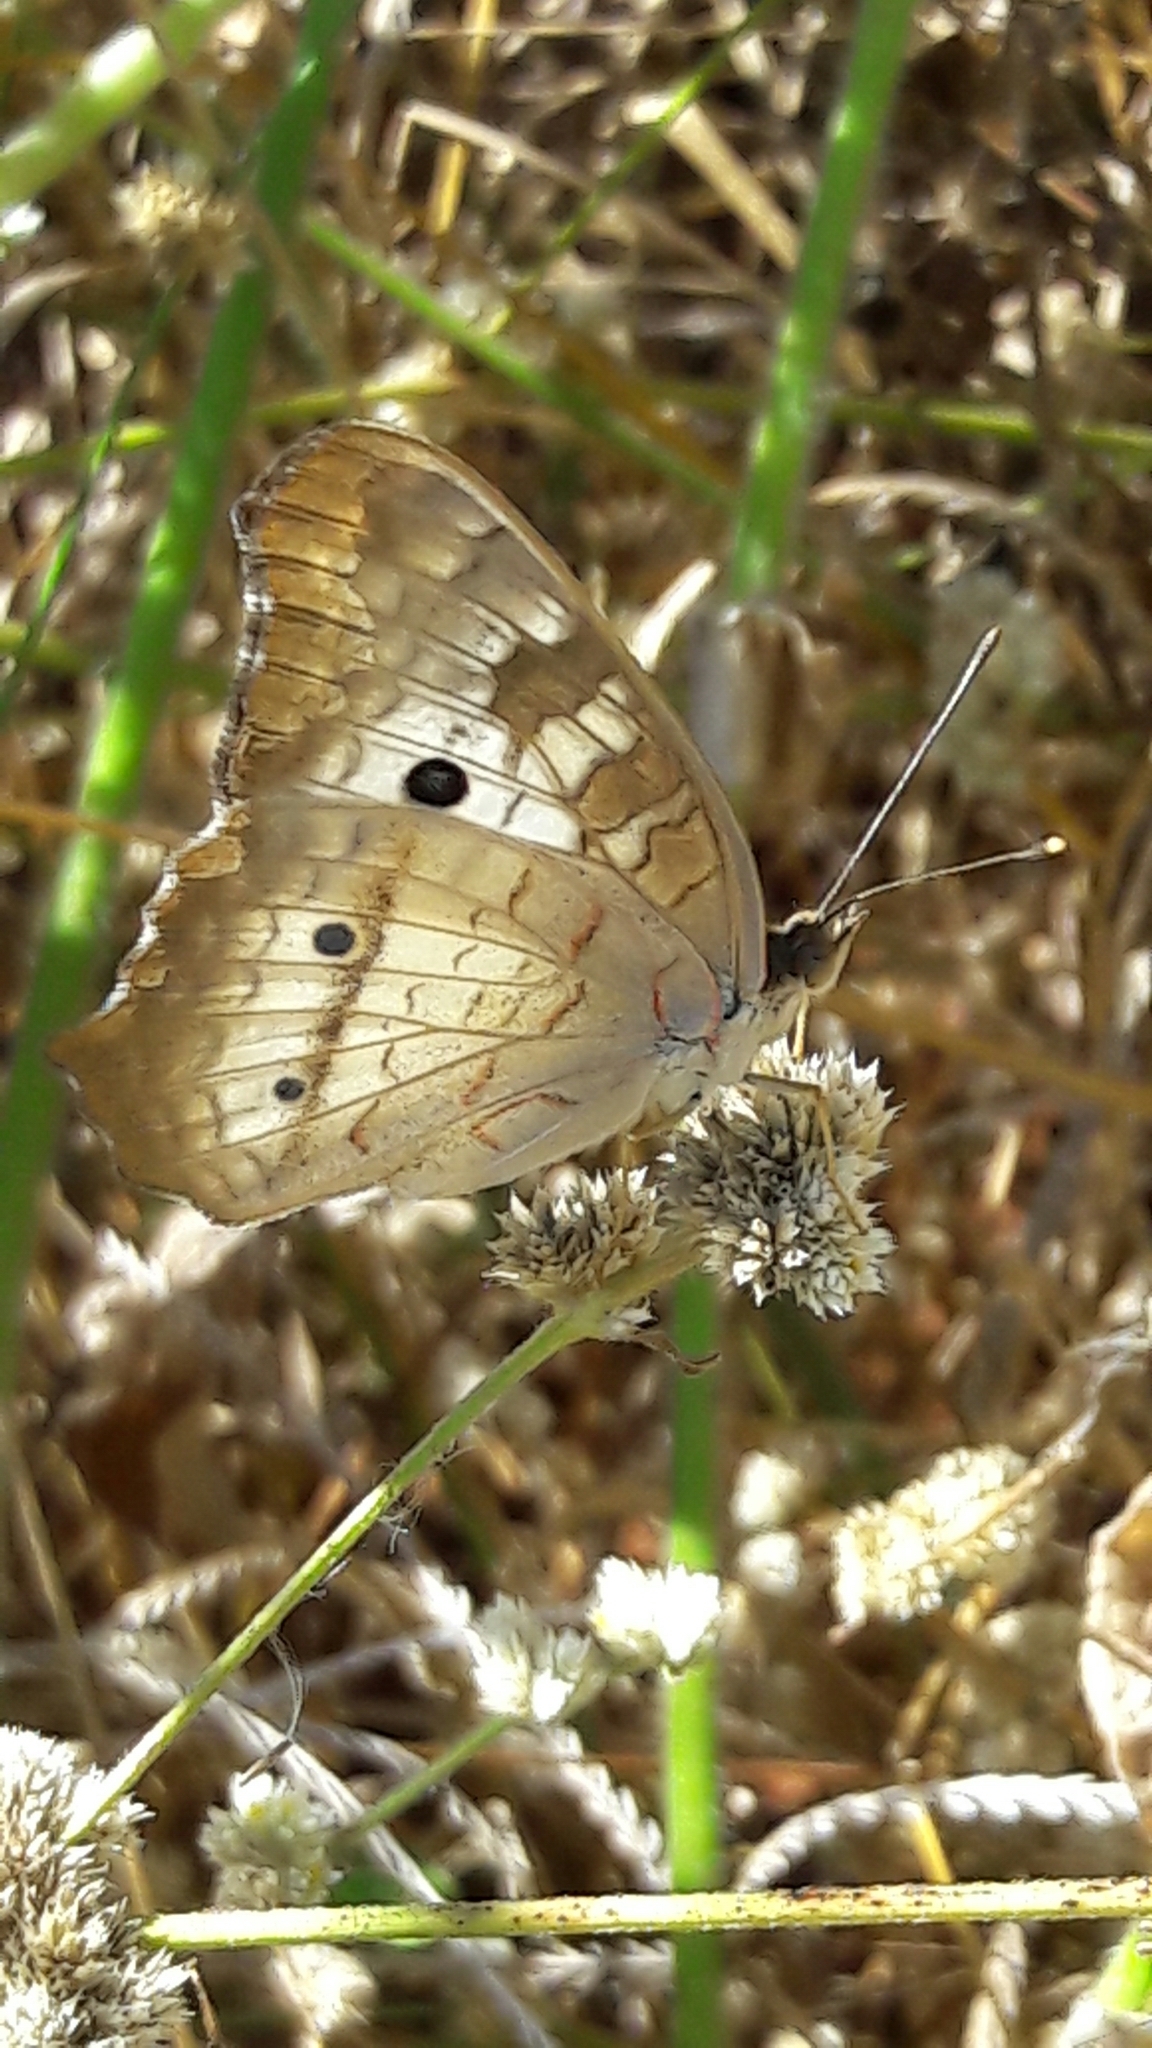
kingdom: Animalia
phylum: Arthropoda
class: Insecta
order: Lepidoptera
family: Nymphalidae
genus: Anartia
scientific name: Anartia jatrophae
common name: White peacock
